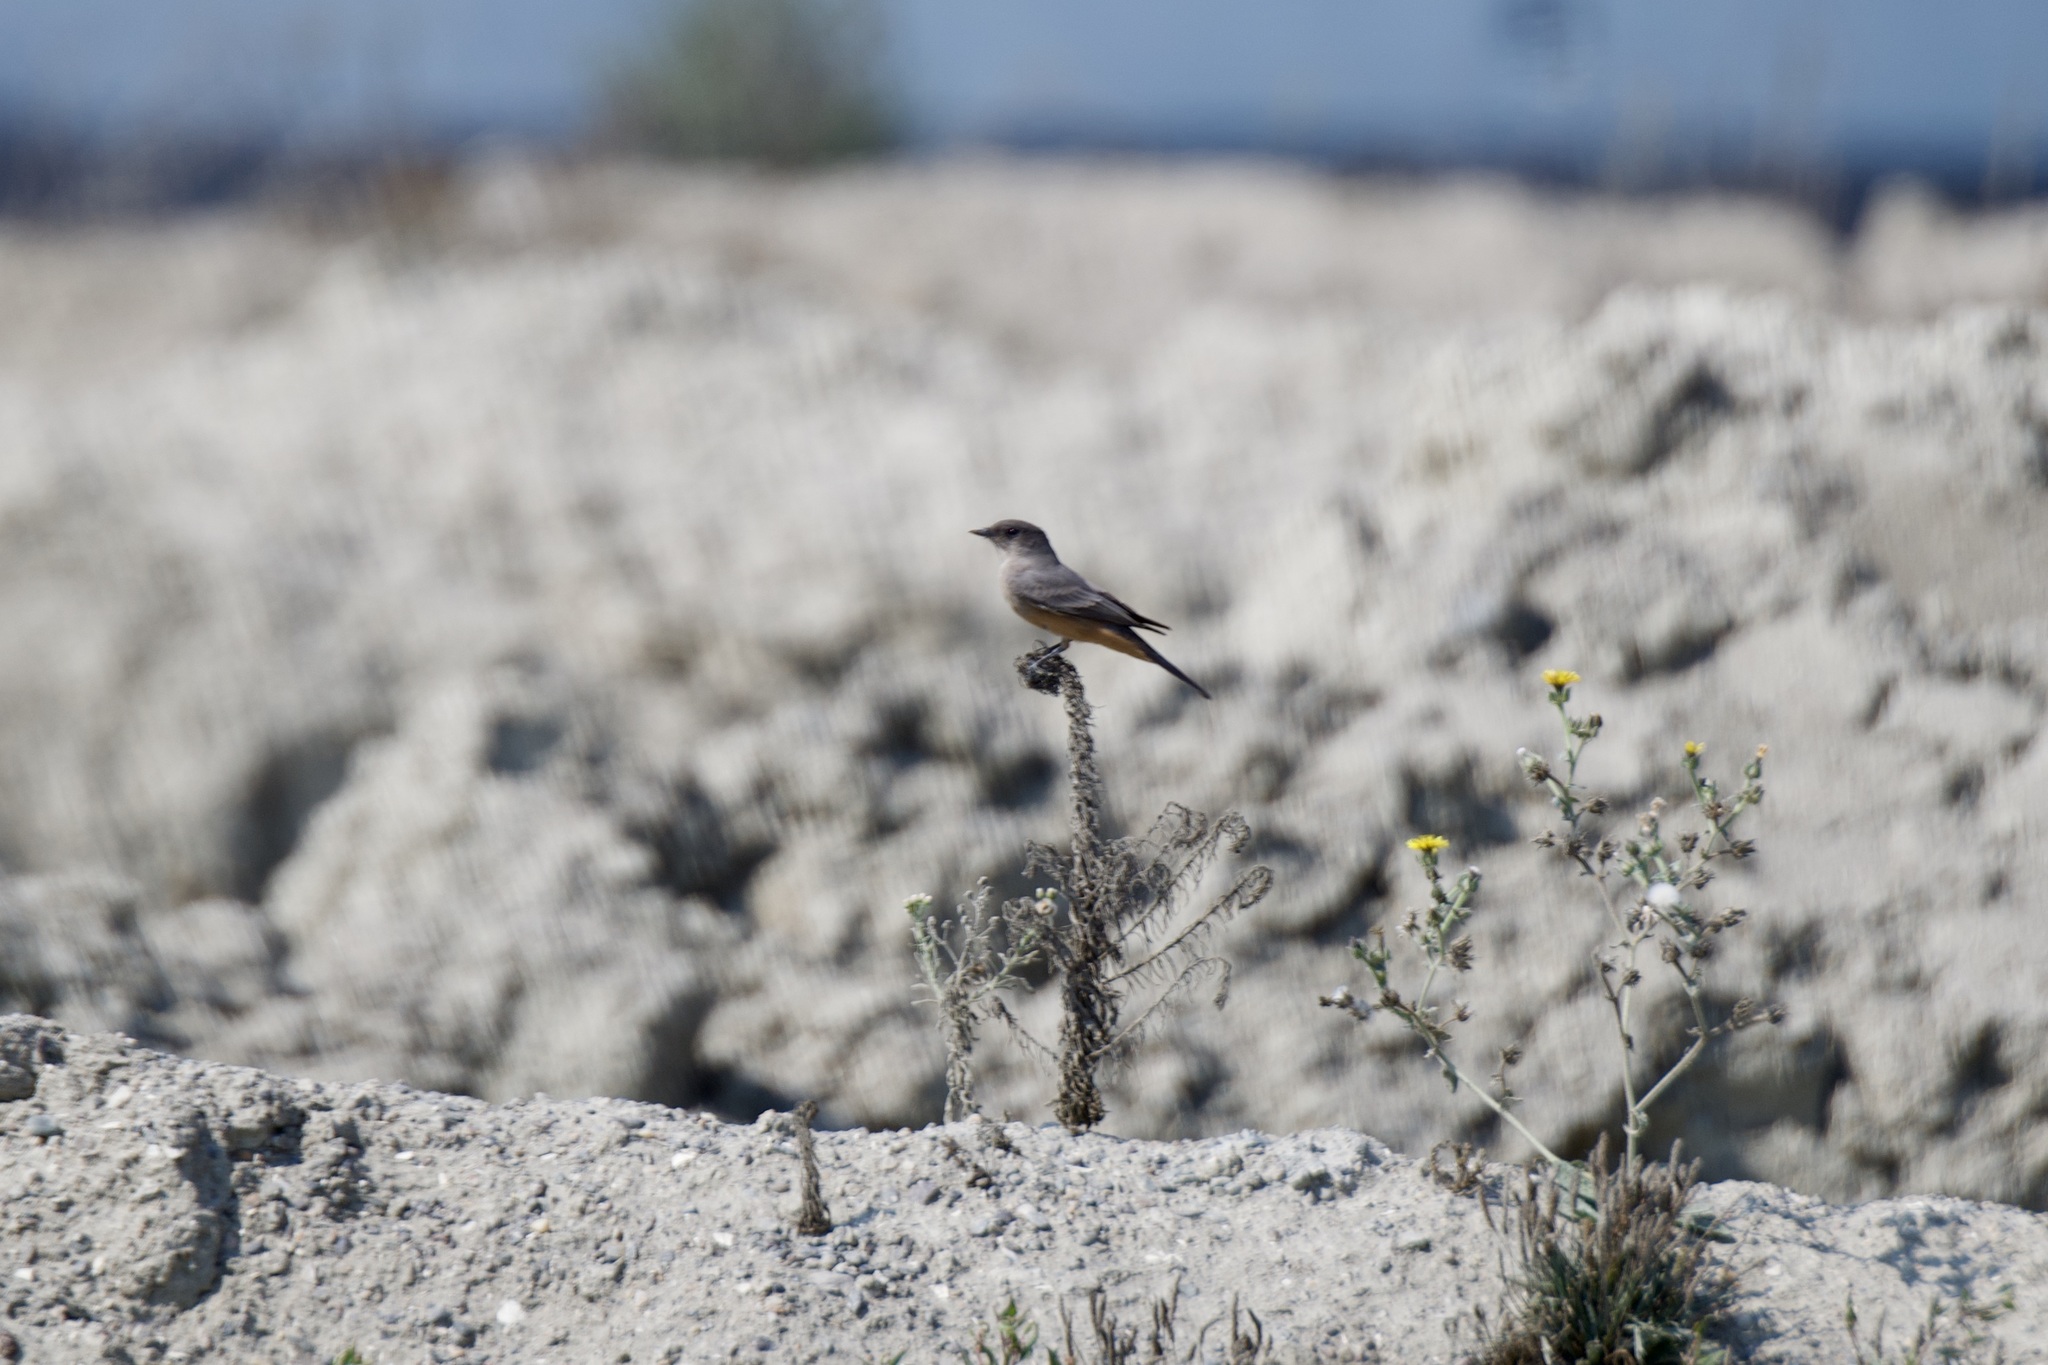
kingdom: Animalia
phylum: Chordata
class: Aves
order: Passeriformes
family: Tyrannidae
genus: Sayornis
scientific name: Sayornis saya
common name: Say's phoebe
